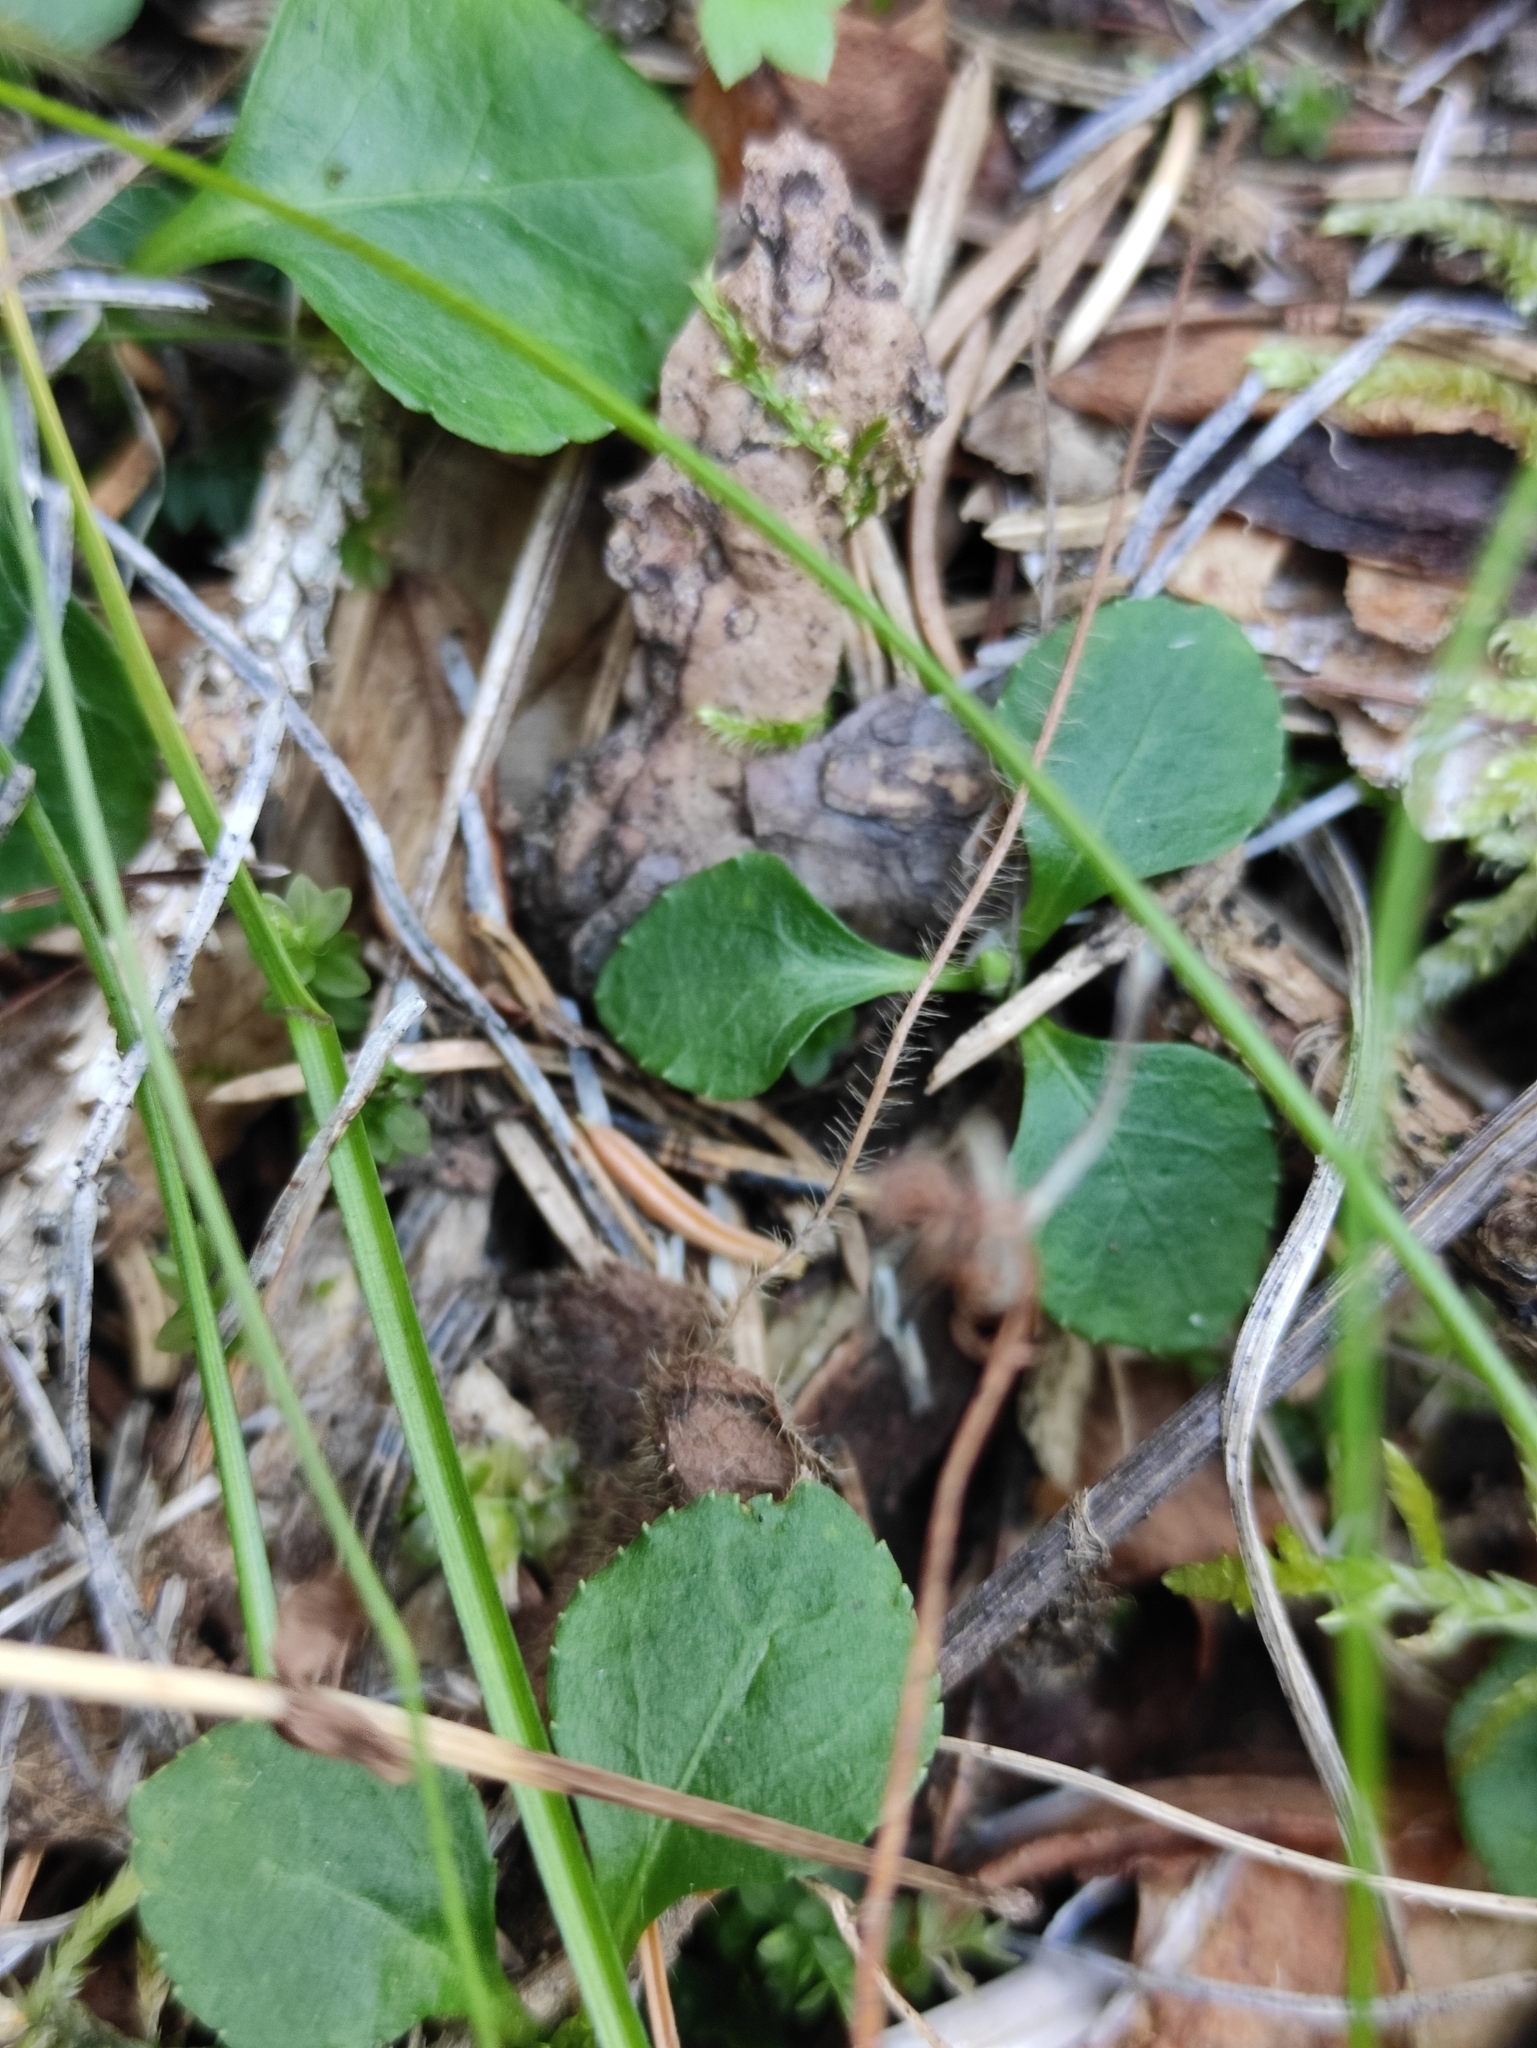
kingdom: Plantae
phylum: Tracheophyta
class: Magnoliopsida
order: Ericales
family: Ericaceae
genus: Moneses
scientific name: Moneses uniflora
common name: One-flowered wintergreen
